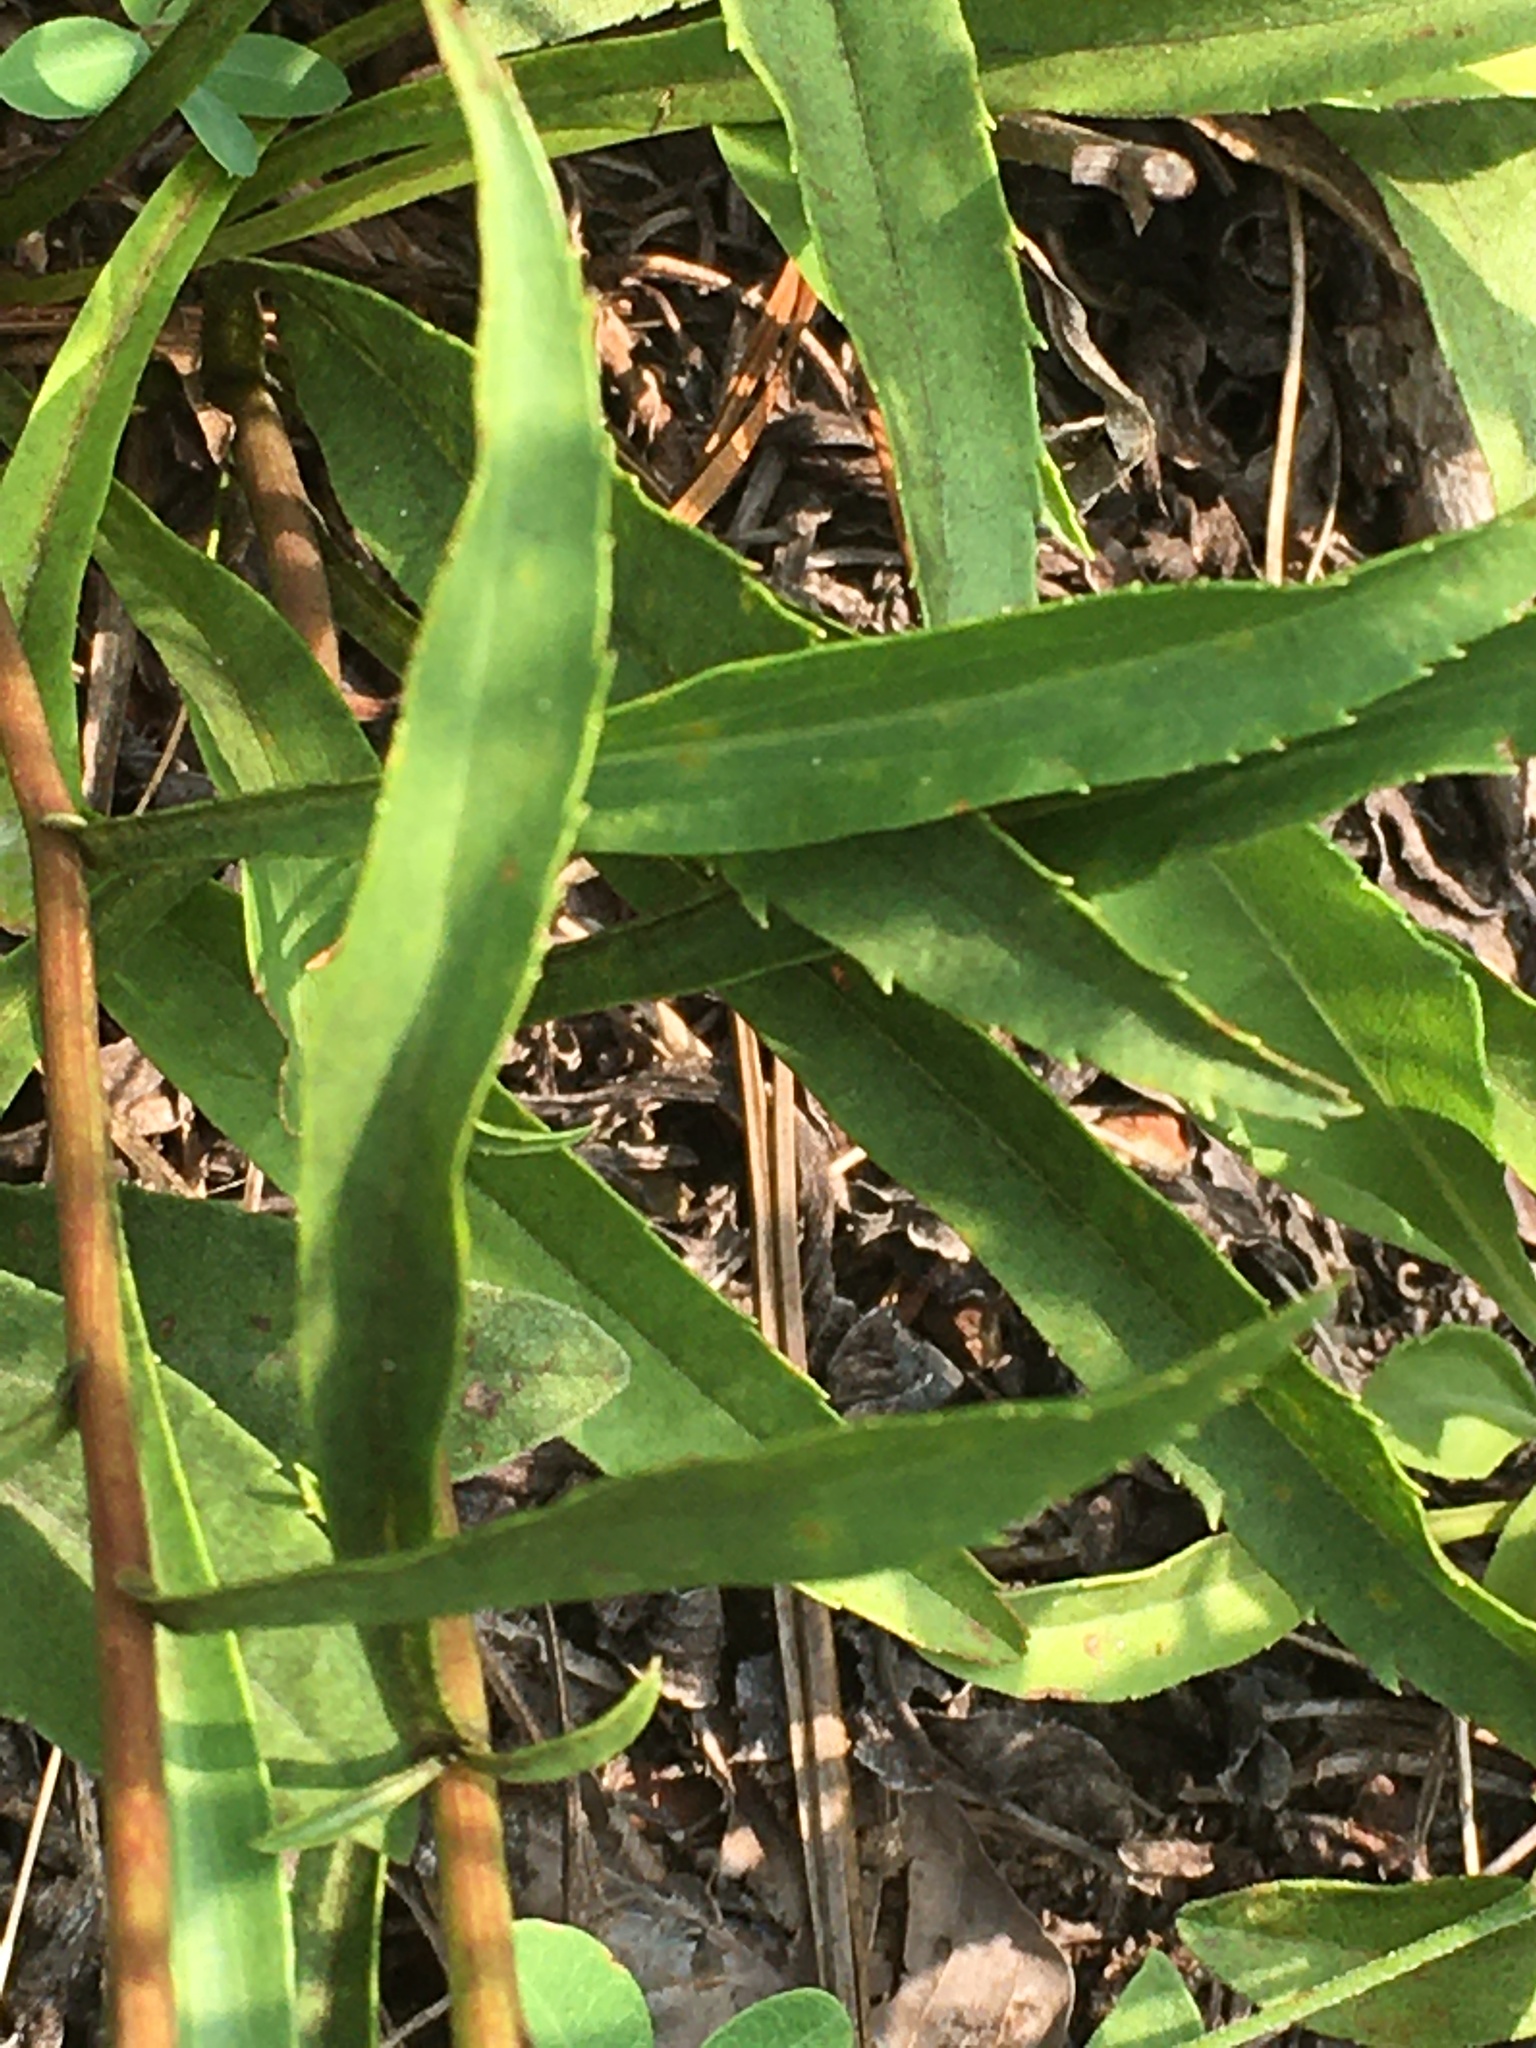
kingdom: Plantae
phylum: Tracheophyta
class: Magnoliopsida
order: Asterales
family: Asteraceae
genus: Solidago
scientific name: Solidago pinetorum
